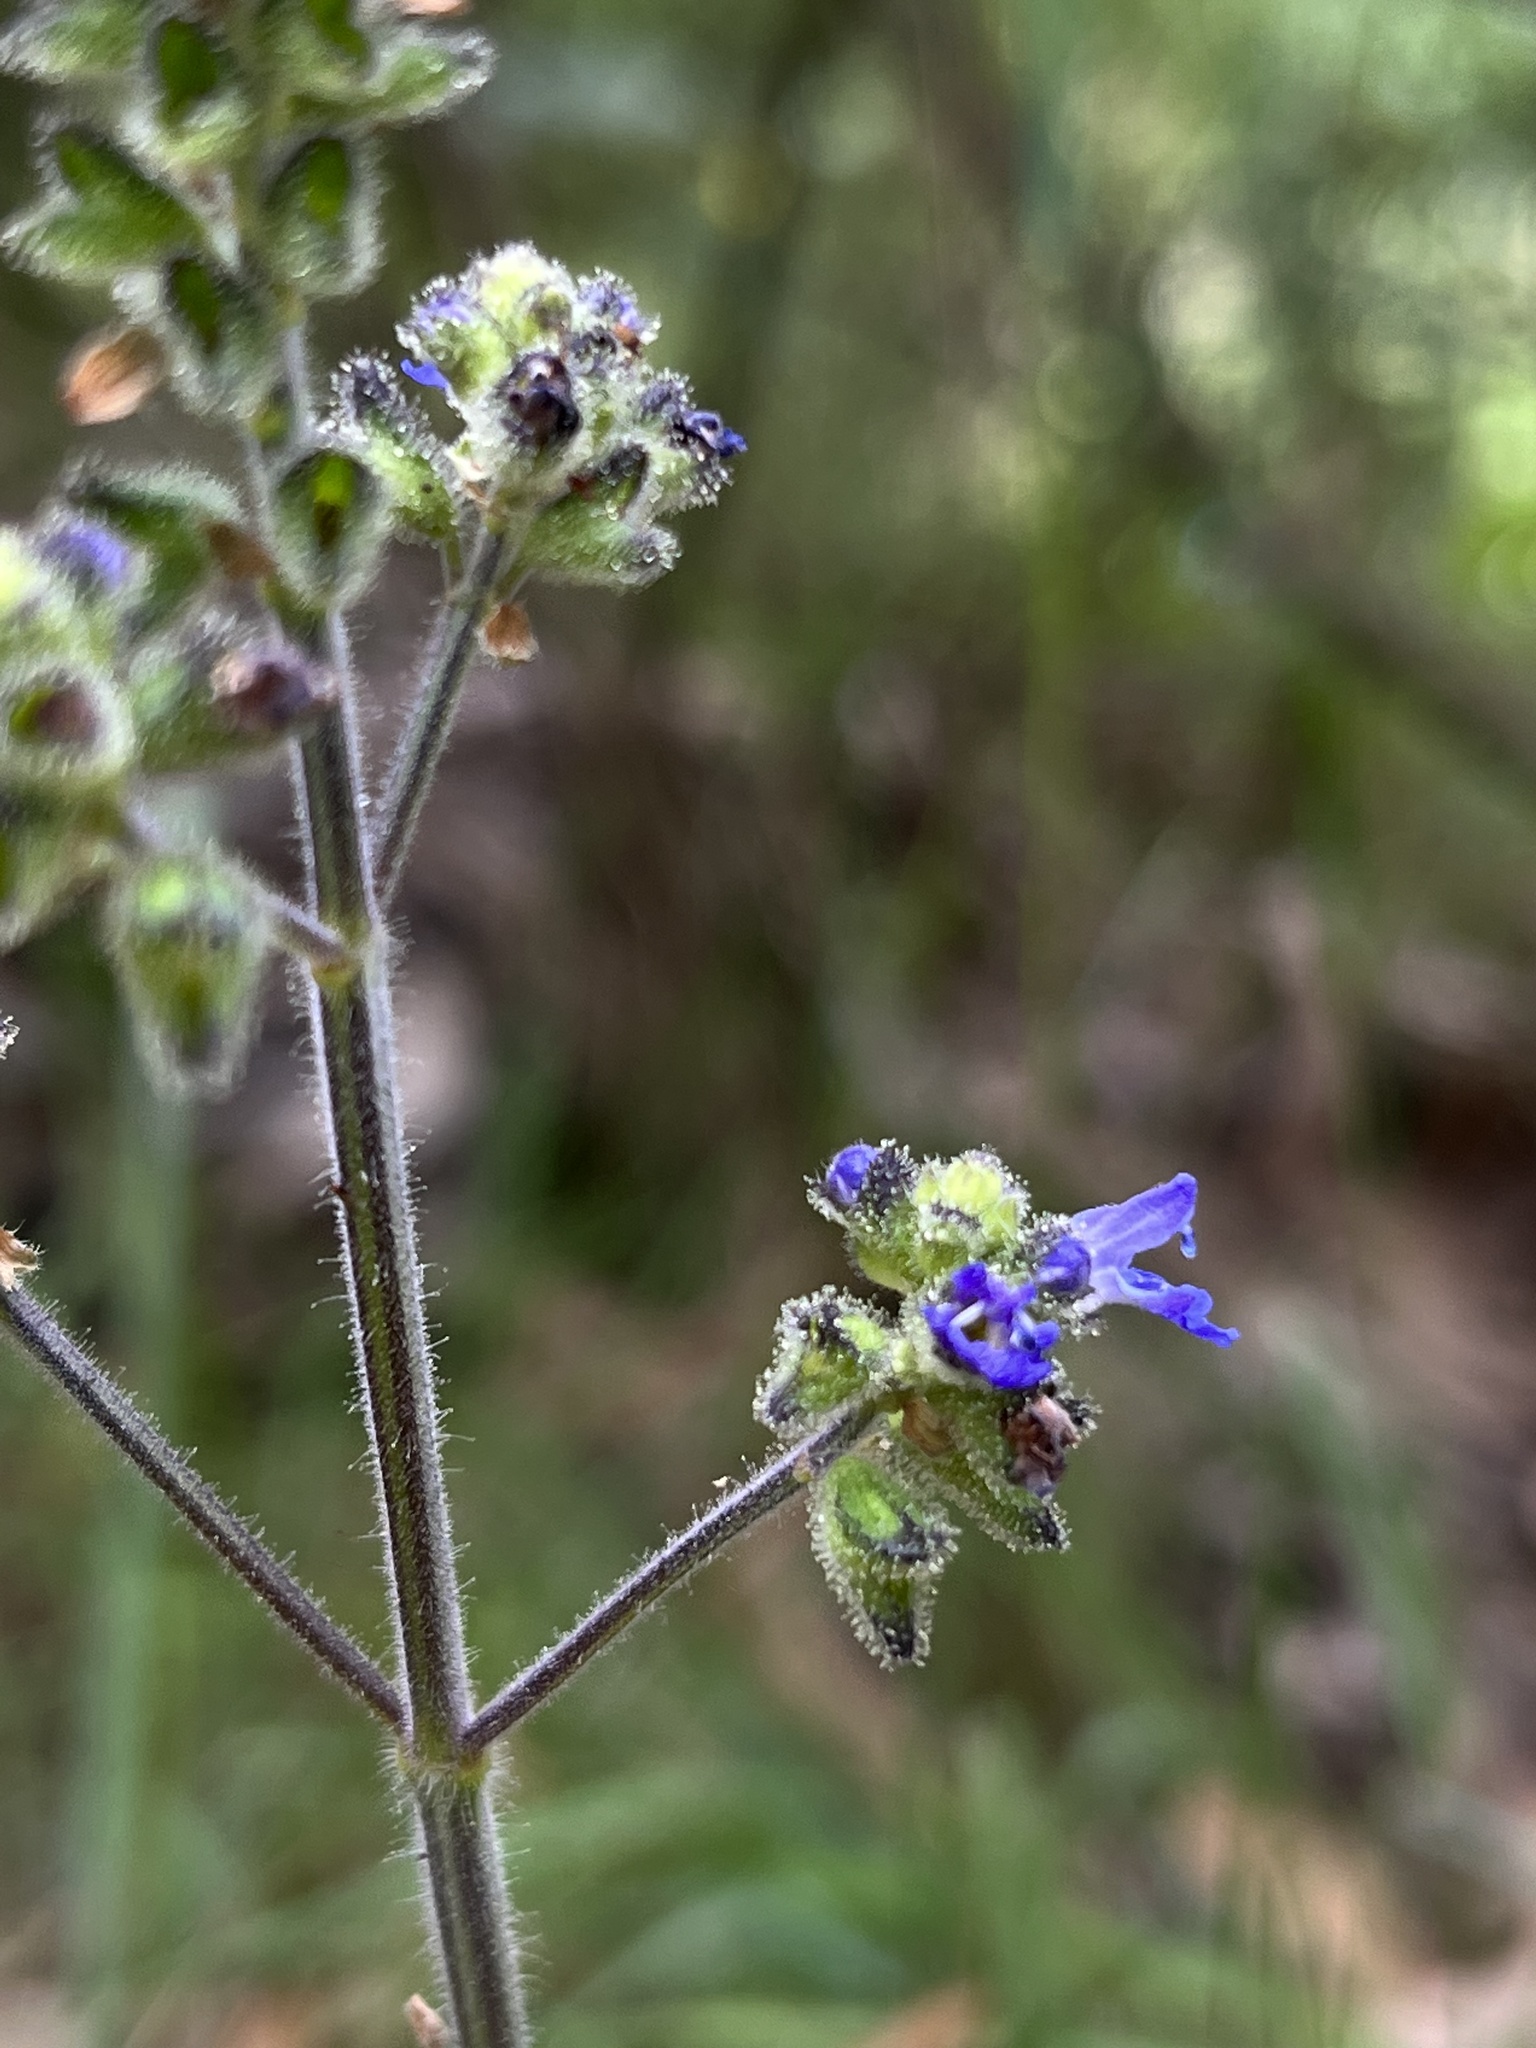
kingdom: Plantae
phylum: Tracheophyta
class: Magnoliopsida
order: Lamiales
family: Lamiaceae
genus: Salvia
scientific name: Salvia palifolia
